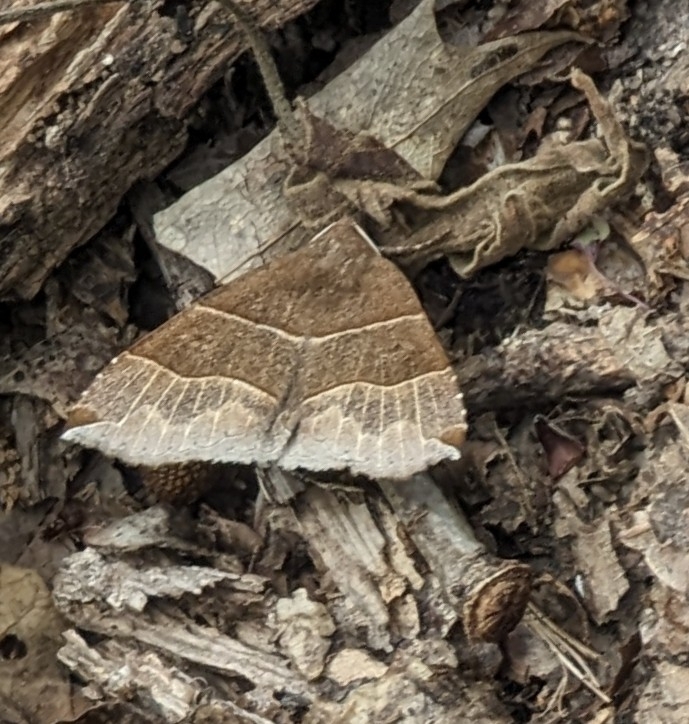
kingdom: Animalia
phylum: Arthropoda
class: Insecta
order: Lepidoptera
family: Erebidae
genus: Parallelia
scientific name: Parallelia bistriaris
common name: Maple looper moth
